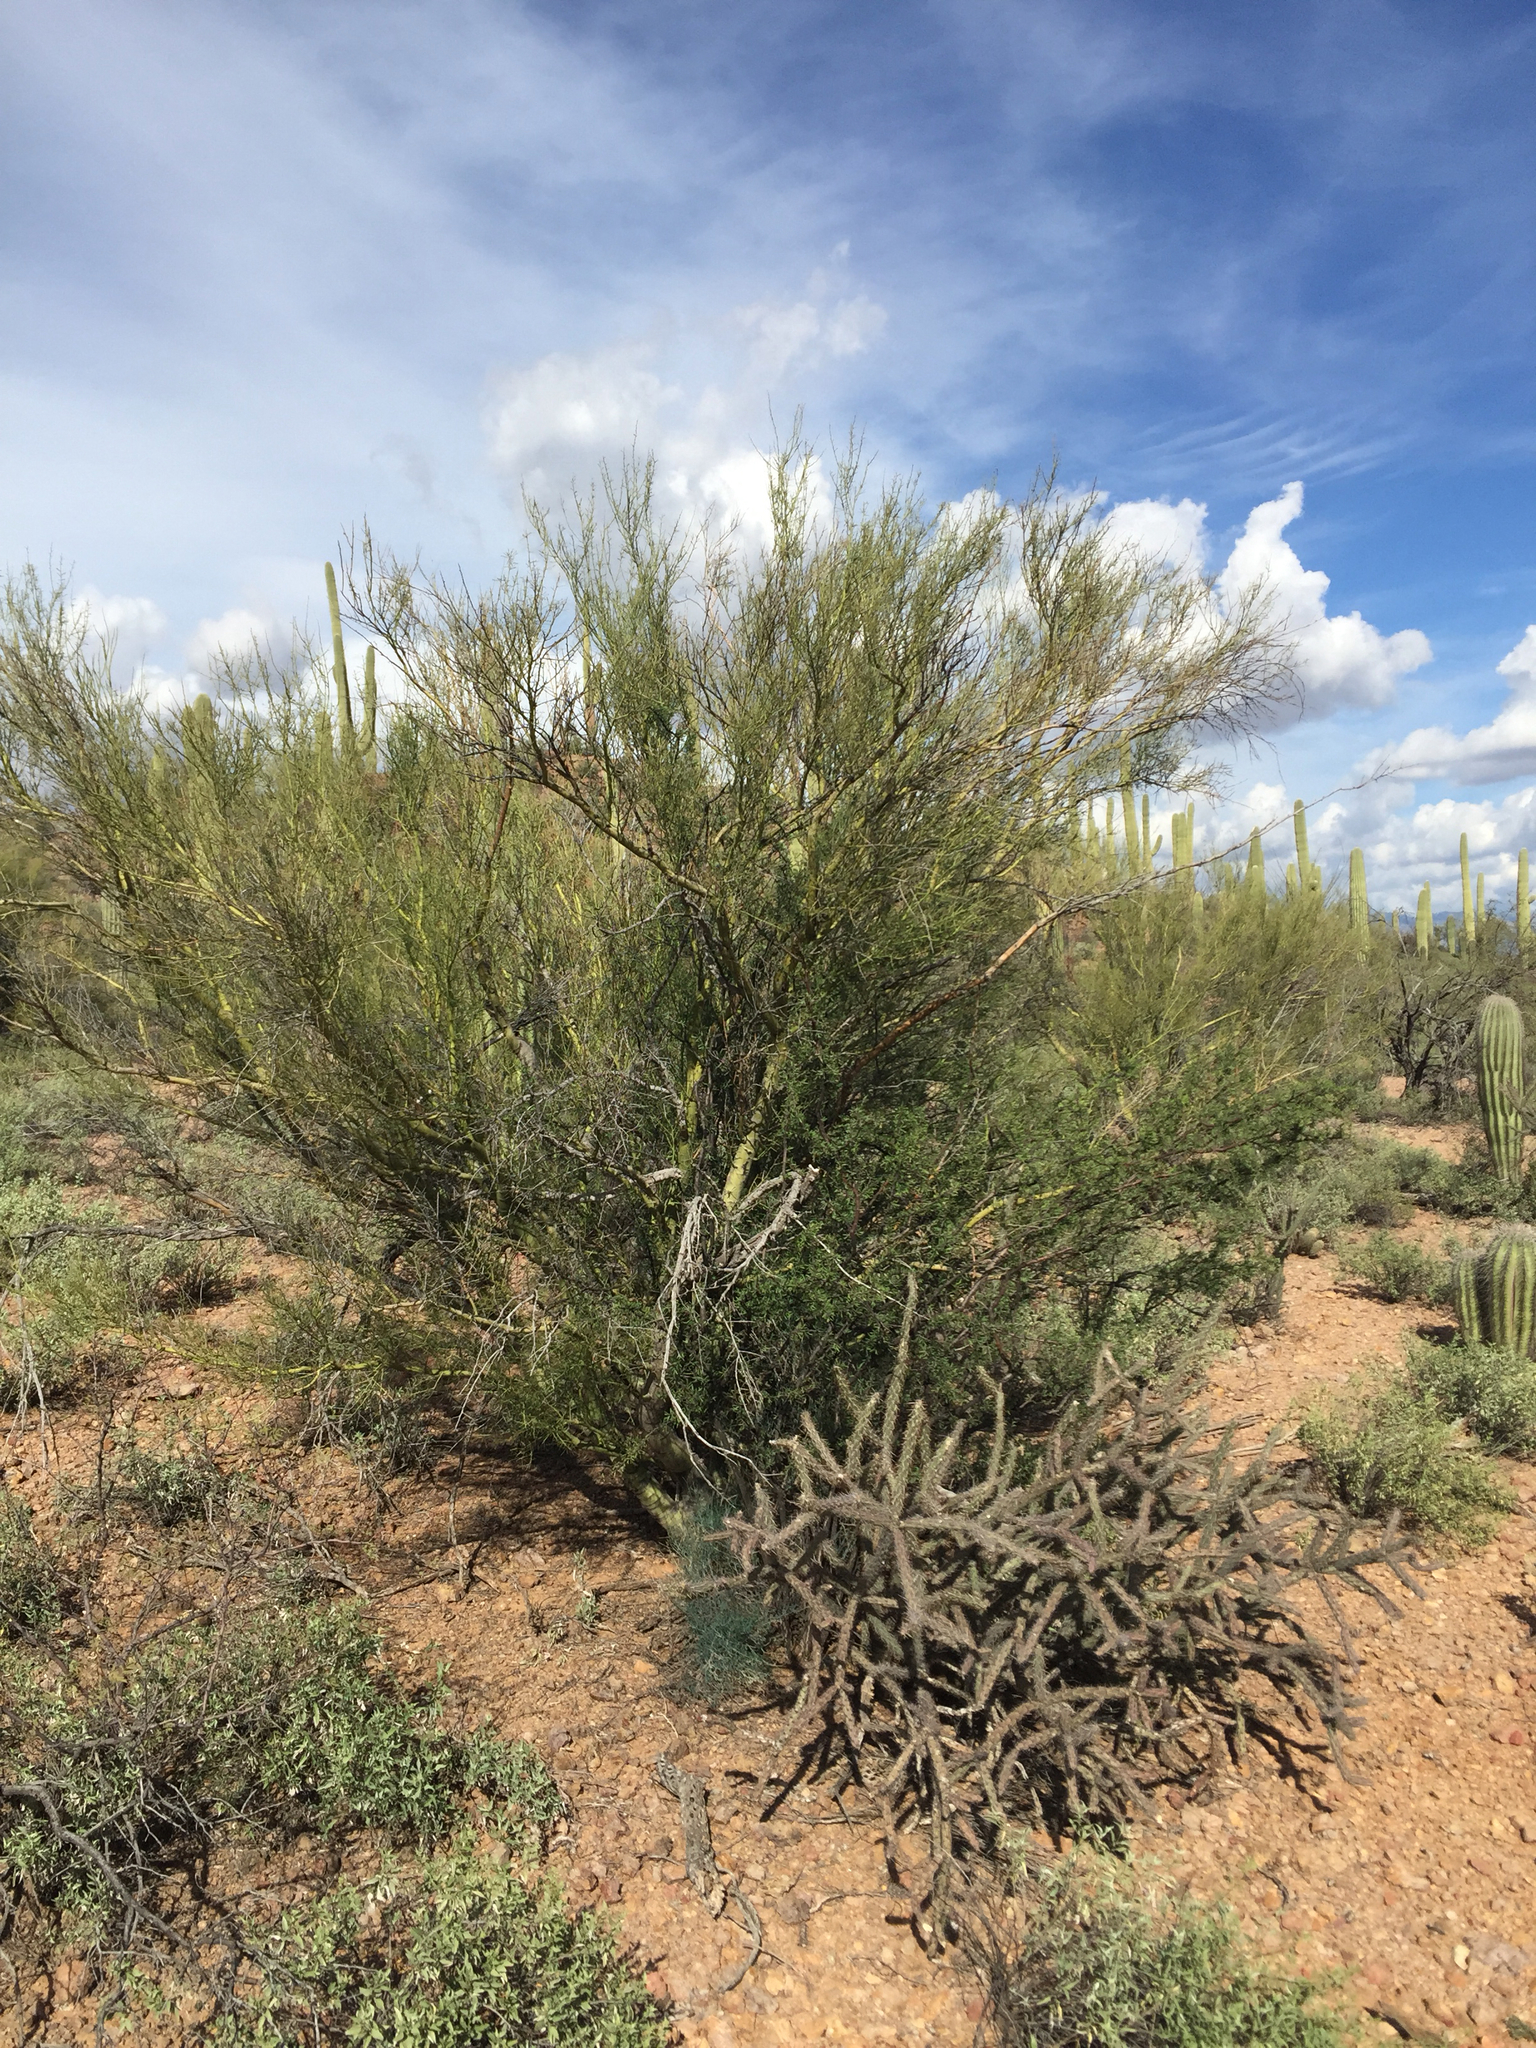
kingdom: Plantae
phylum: Tracheophyta
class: Magnoliopsida
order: Fabales
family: Fabaceae
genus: Parkinsonia
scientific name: Parkinsonia microphylla
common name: Yellow paloverde
